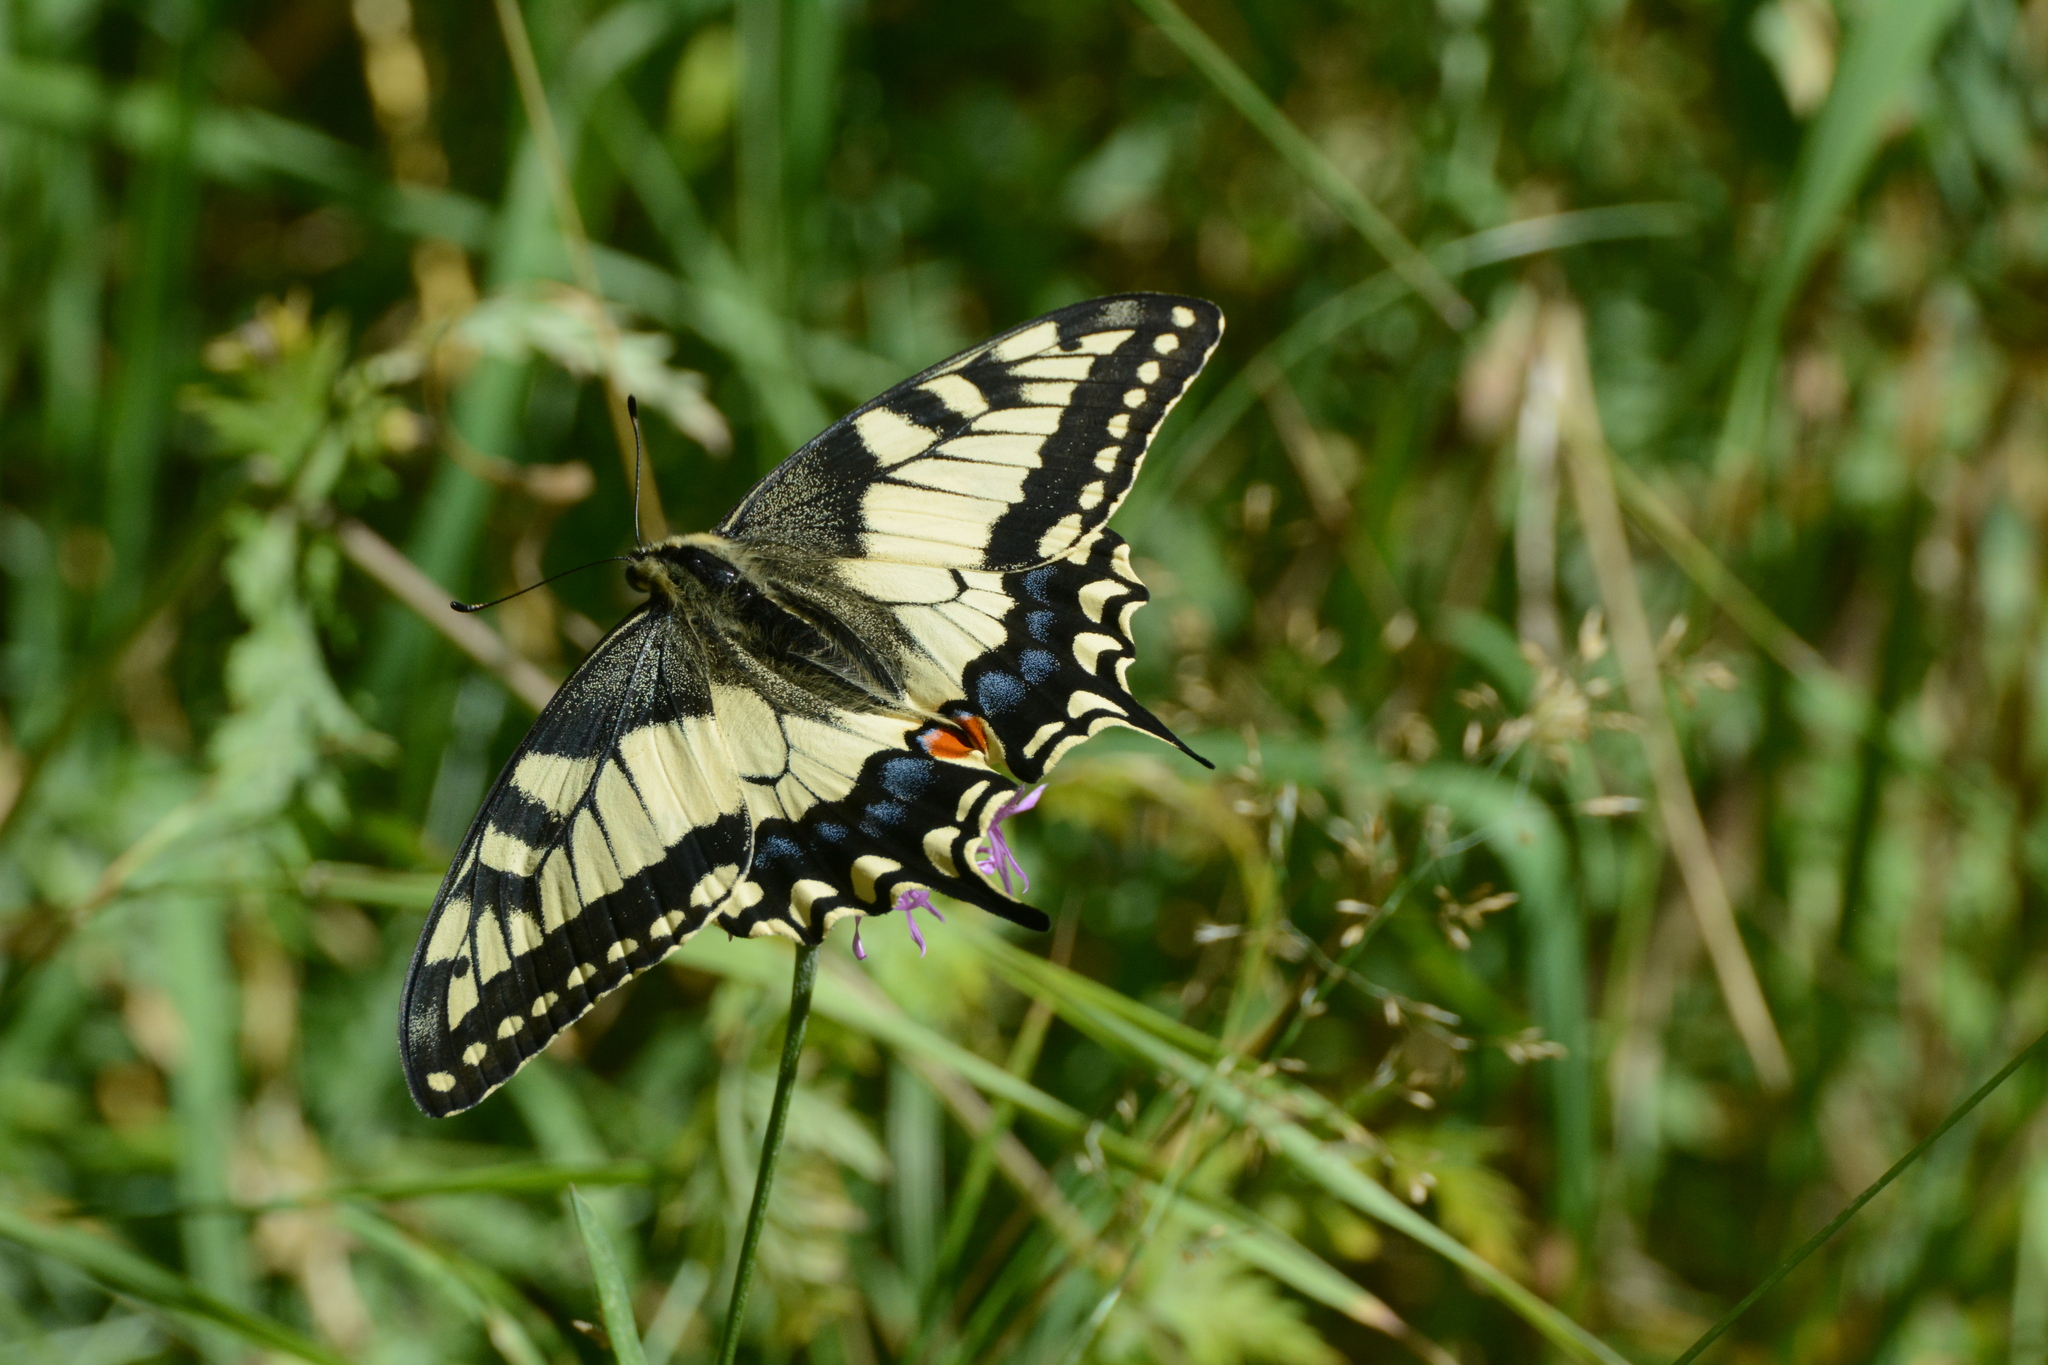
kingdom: Animalia
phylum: Arthropoda
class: Insecta
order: Lepidoptera
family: Papilionidae
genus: Papilio
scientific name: Papilio machaon
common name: Swallowtail
